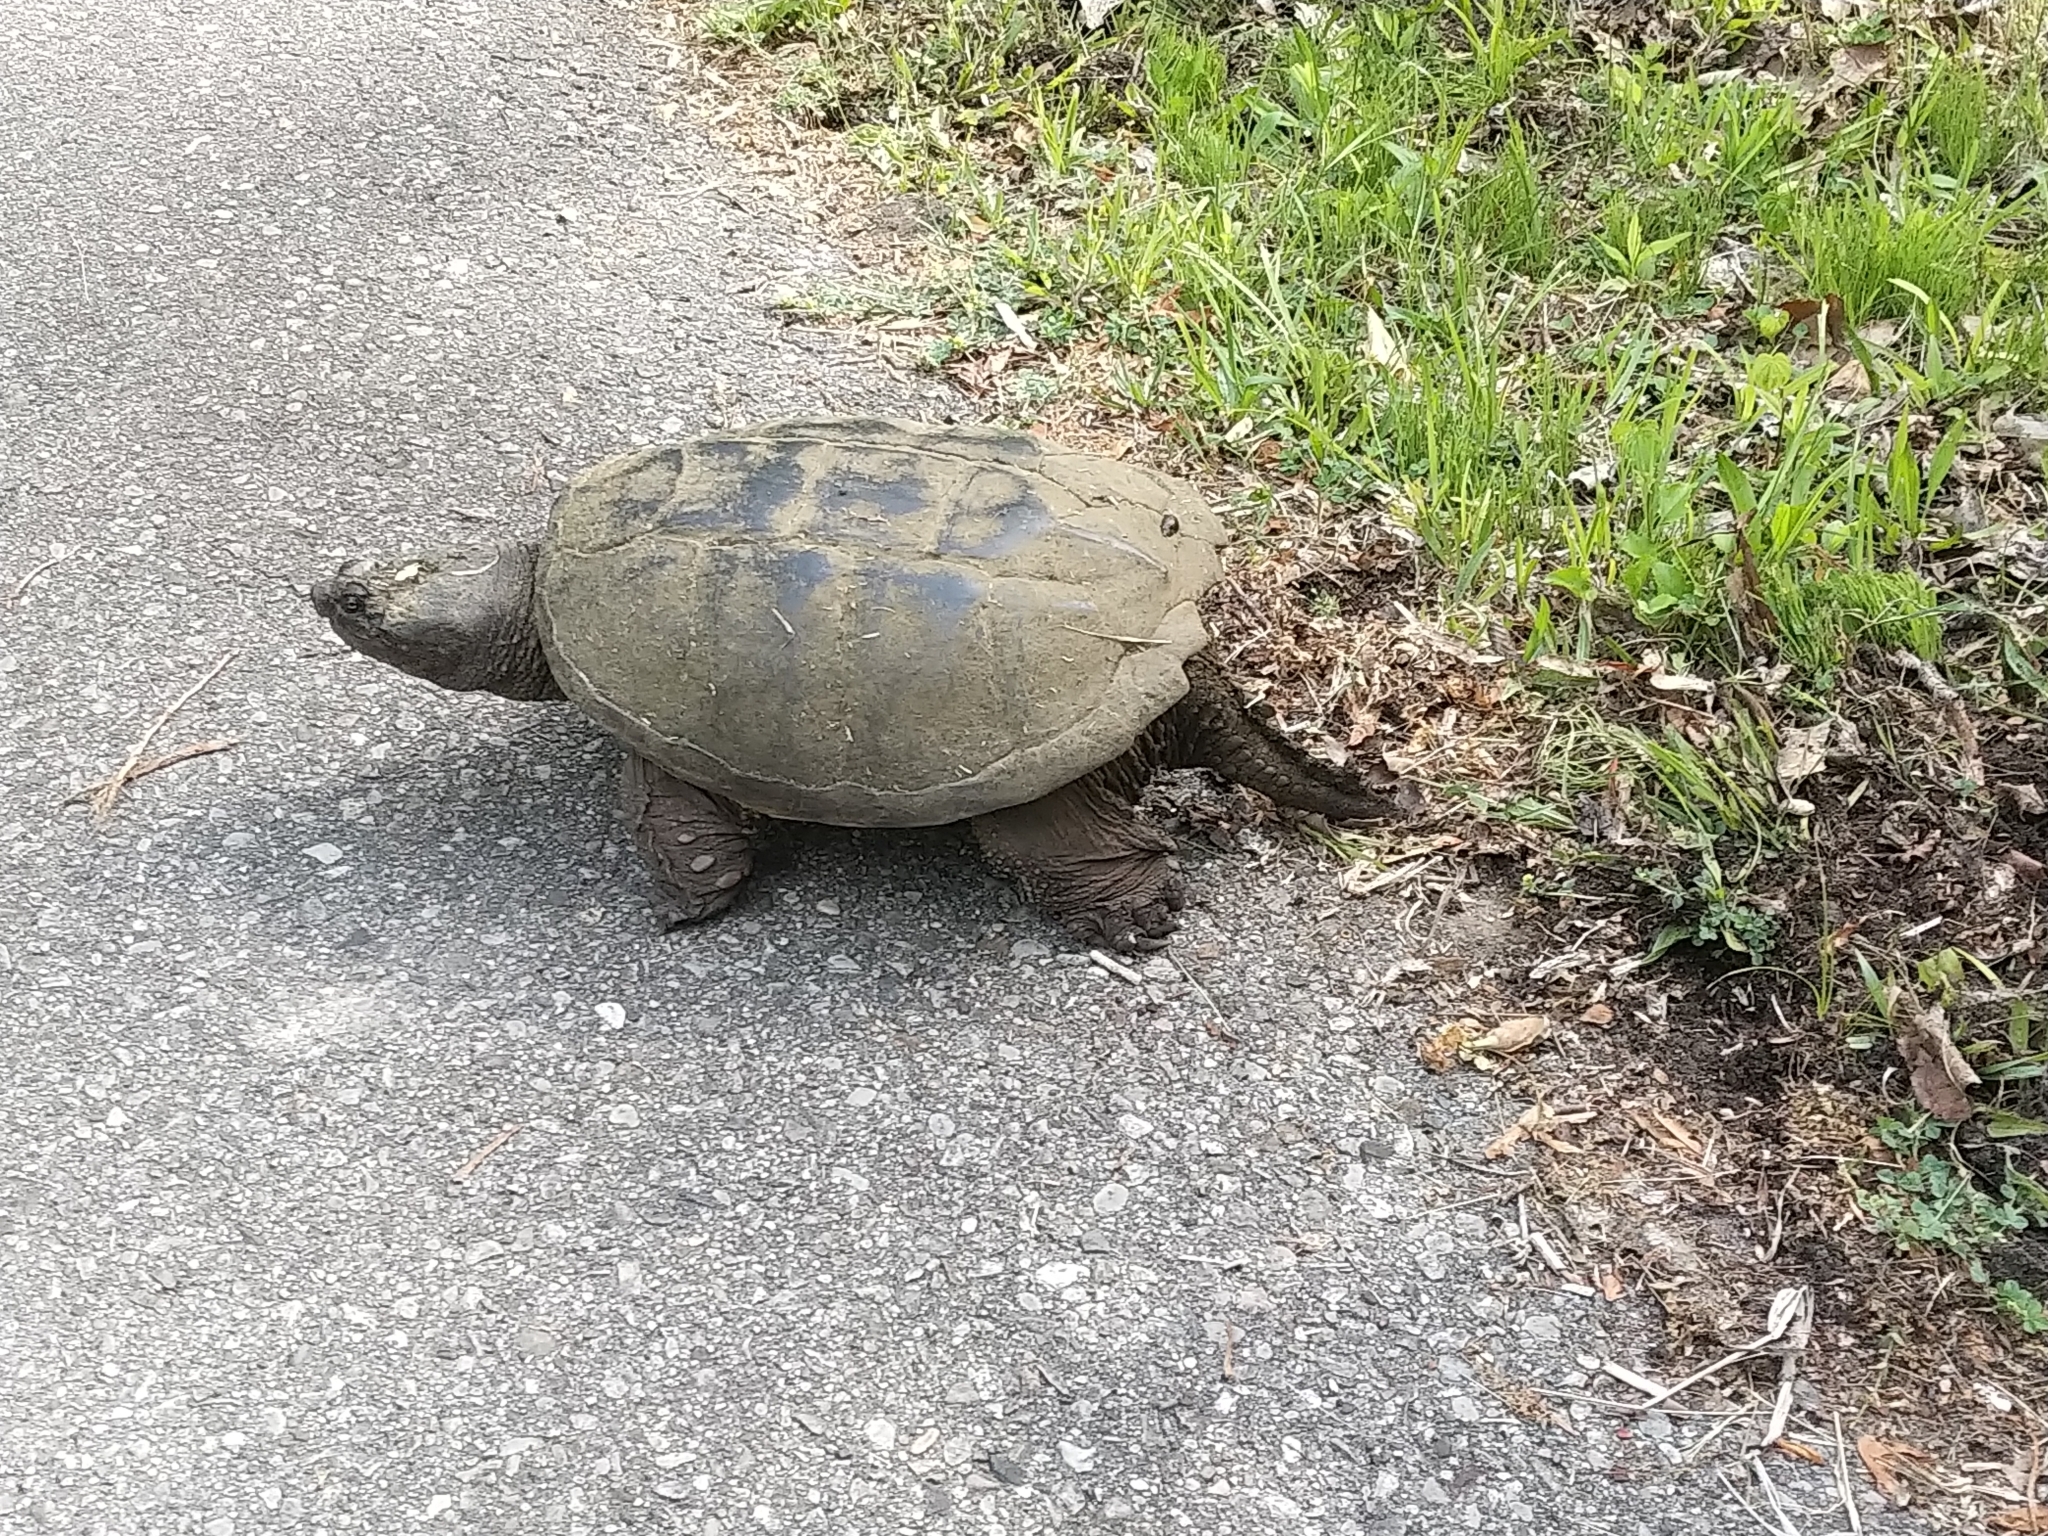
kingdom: Animalia
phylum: Chordata
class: Testudines
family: Chelydridae
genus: Chelydra
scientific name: Chelydra serpentina
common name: Common snapping turtle
